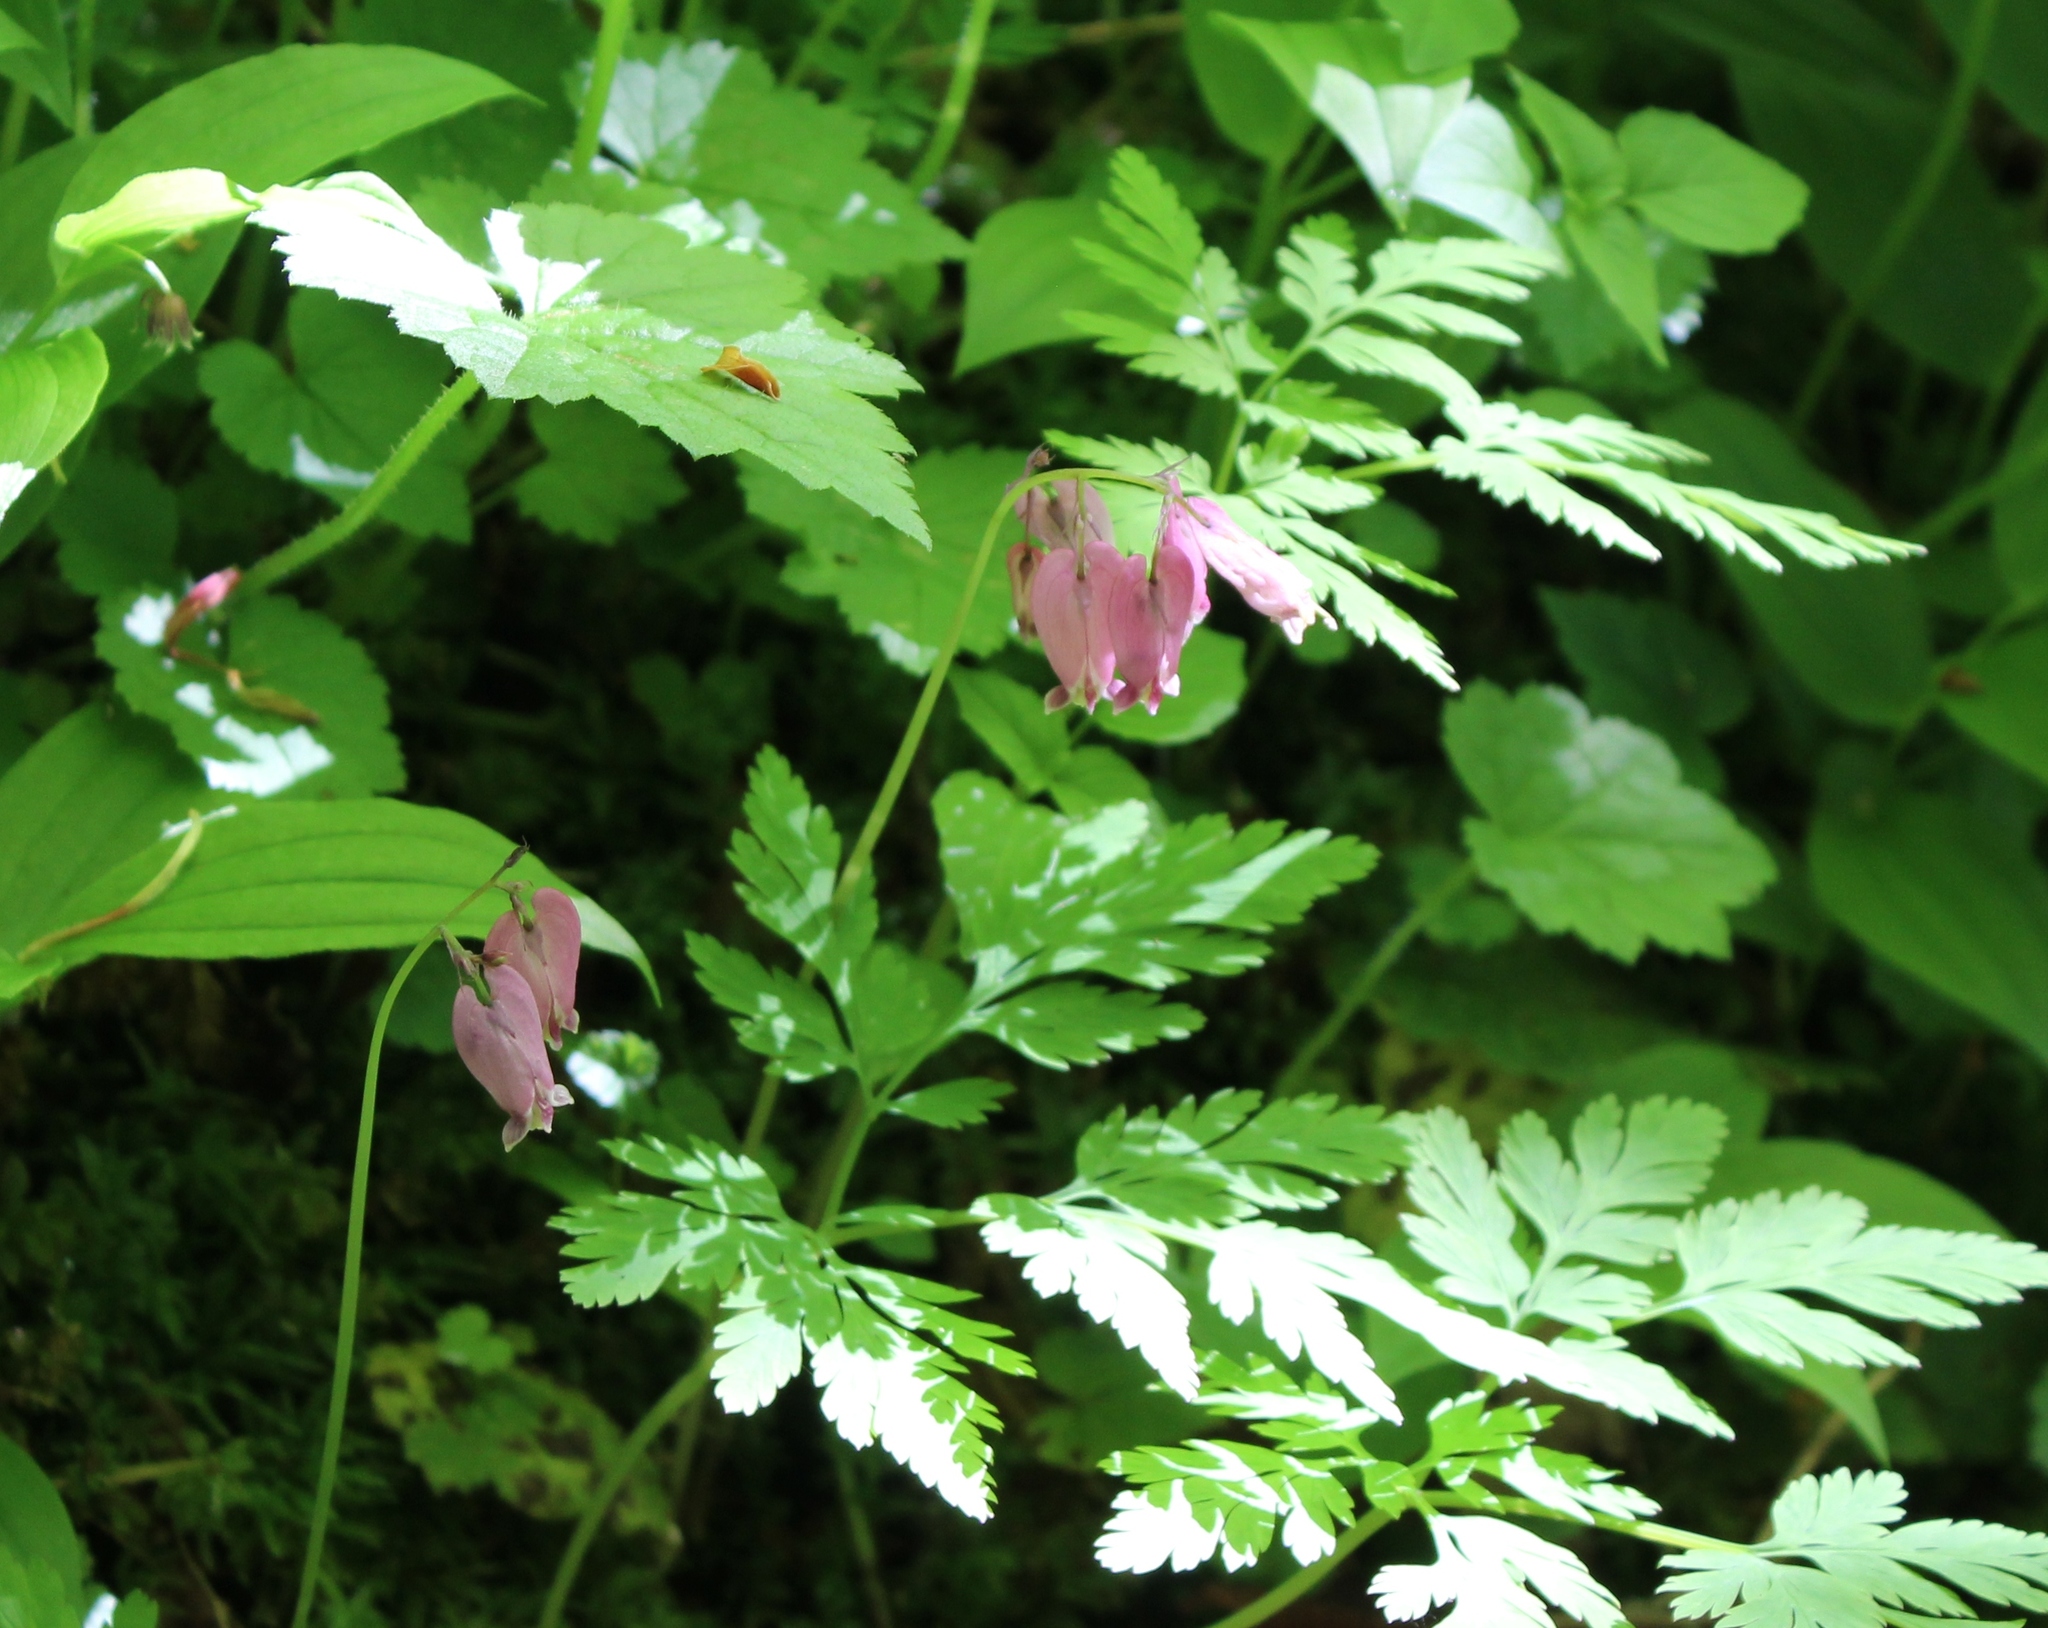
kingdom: Plantae
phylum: Tracheophyta
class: Magnoliopsida
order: Ranunculales
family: Papaveraceae
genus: Dicentra
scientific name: Dicentra formosa
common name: Bleeding-heart
